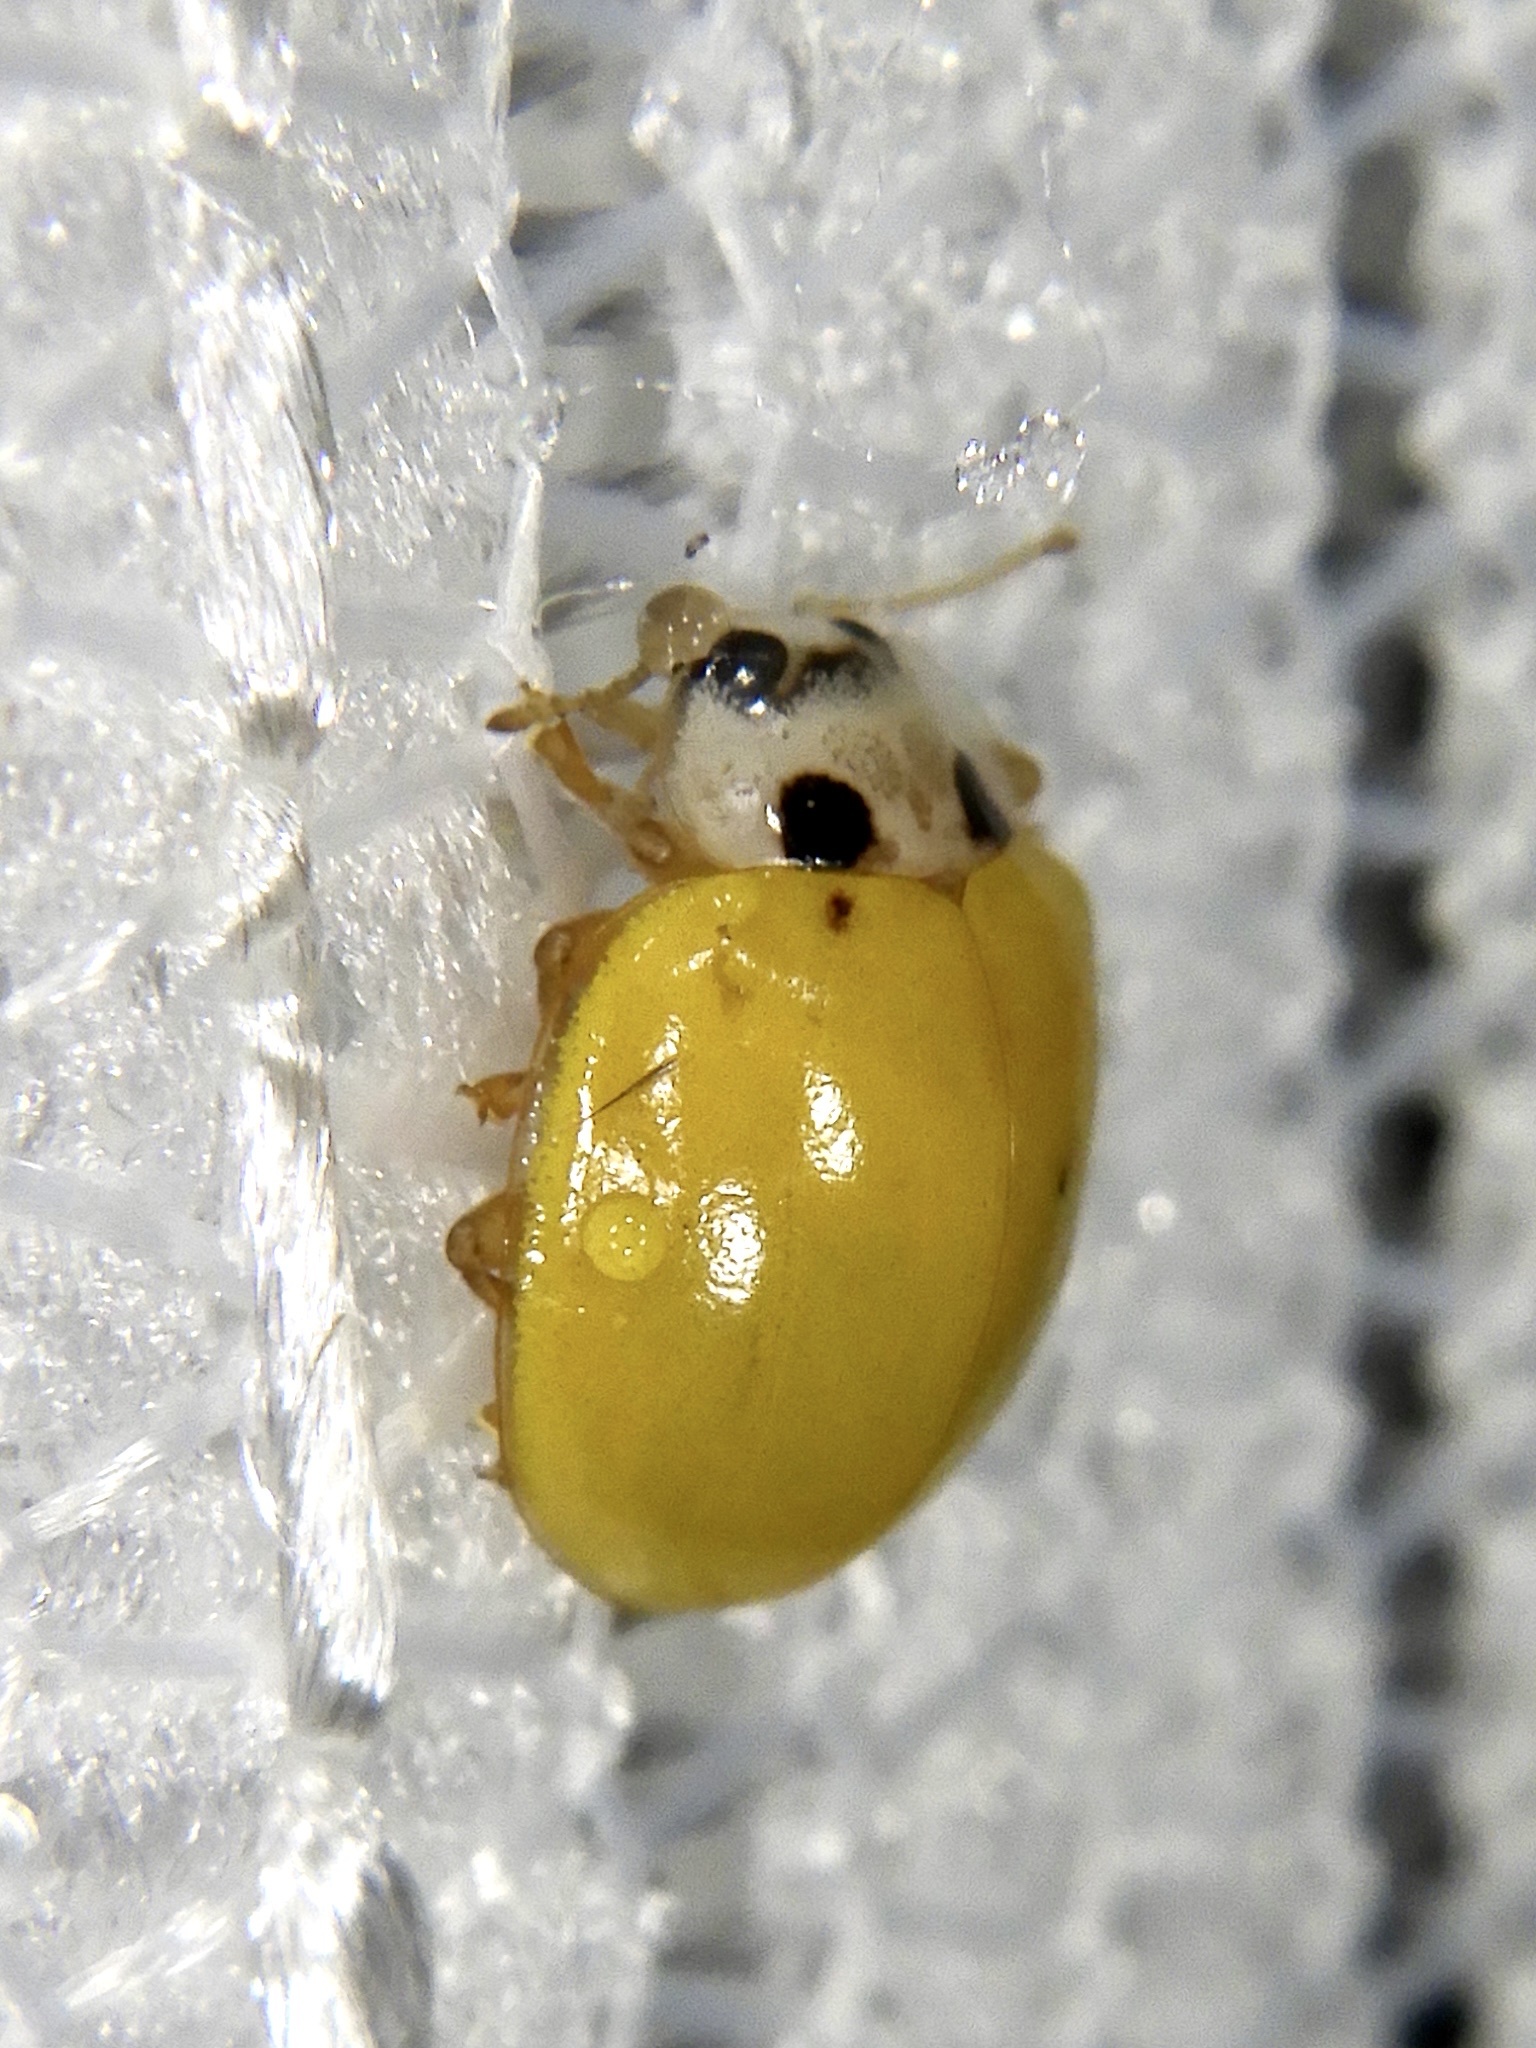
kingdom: Animalia
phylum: Arthropoda
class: Insecta
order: Coleoptera
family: Coccinellidae
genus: Illeis
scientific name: Illeis koebelei
